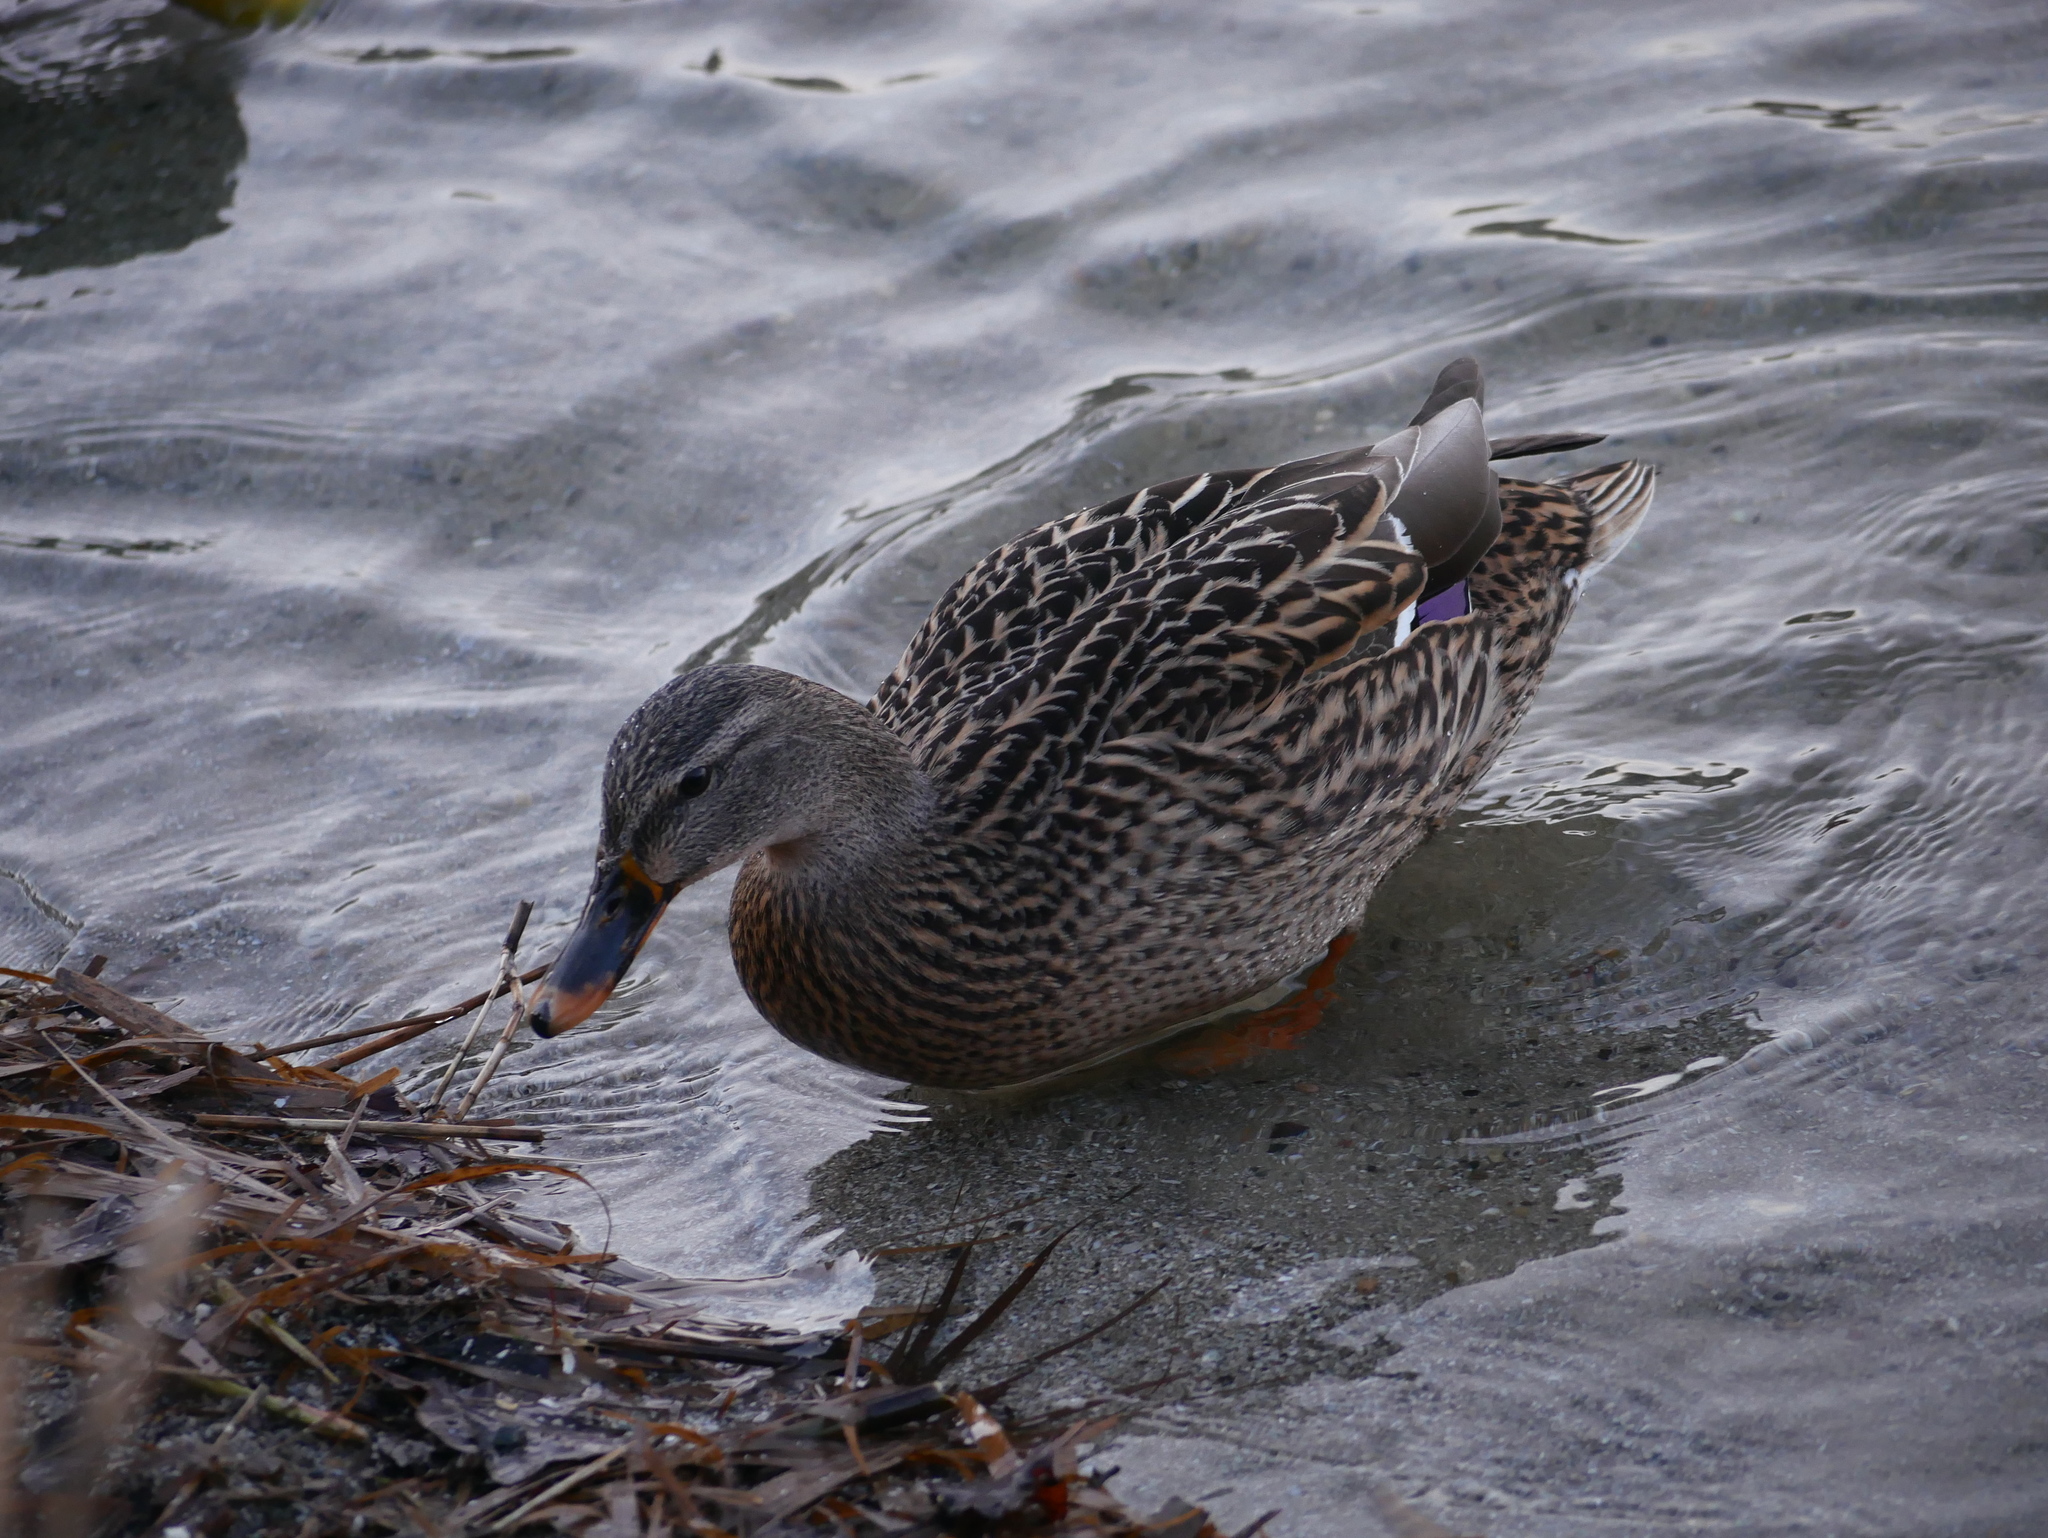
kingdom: Animalia
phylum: Chordata
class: Aves
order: Anseriformes
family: Anatidae
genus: Anas
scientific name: Anas platyrhynchos
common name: Mallard
